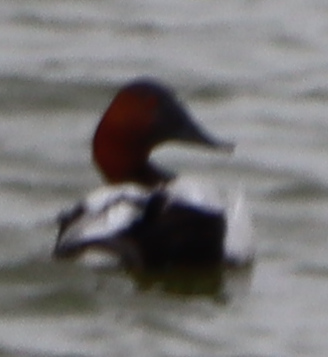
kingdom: Animalia
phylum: Chordata
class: Aves
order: Anseriformes
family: Anatidae
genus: Aythya
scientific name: Aythya valisineria
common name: Canvasback
